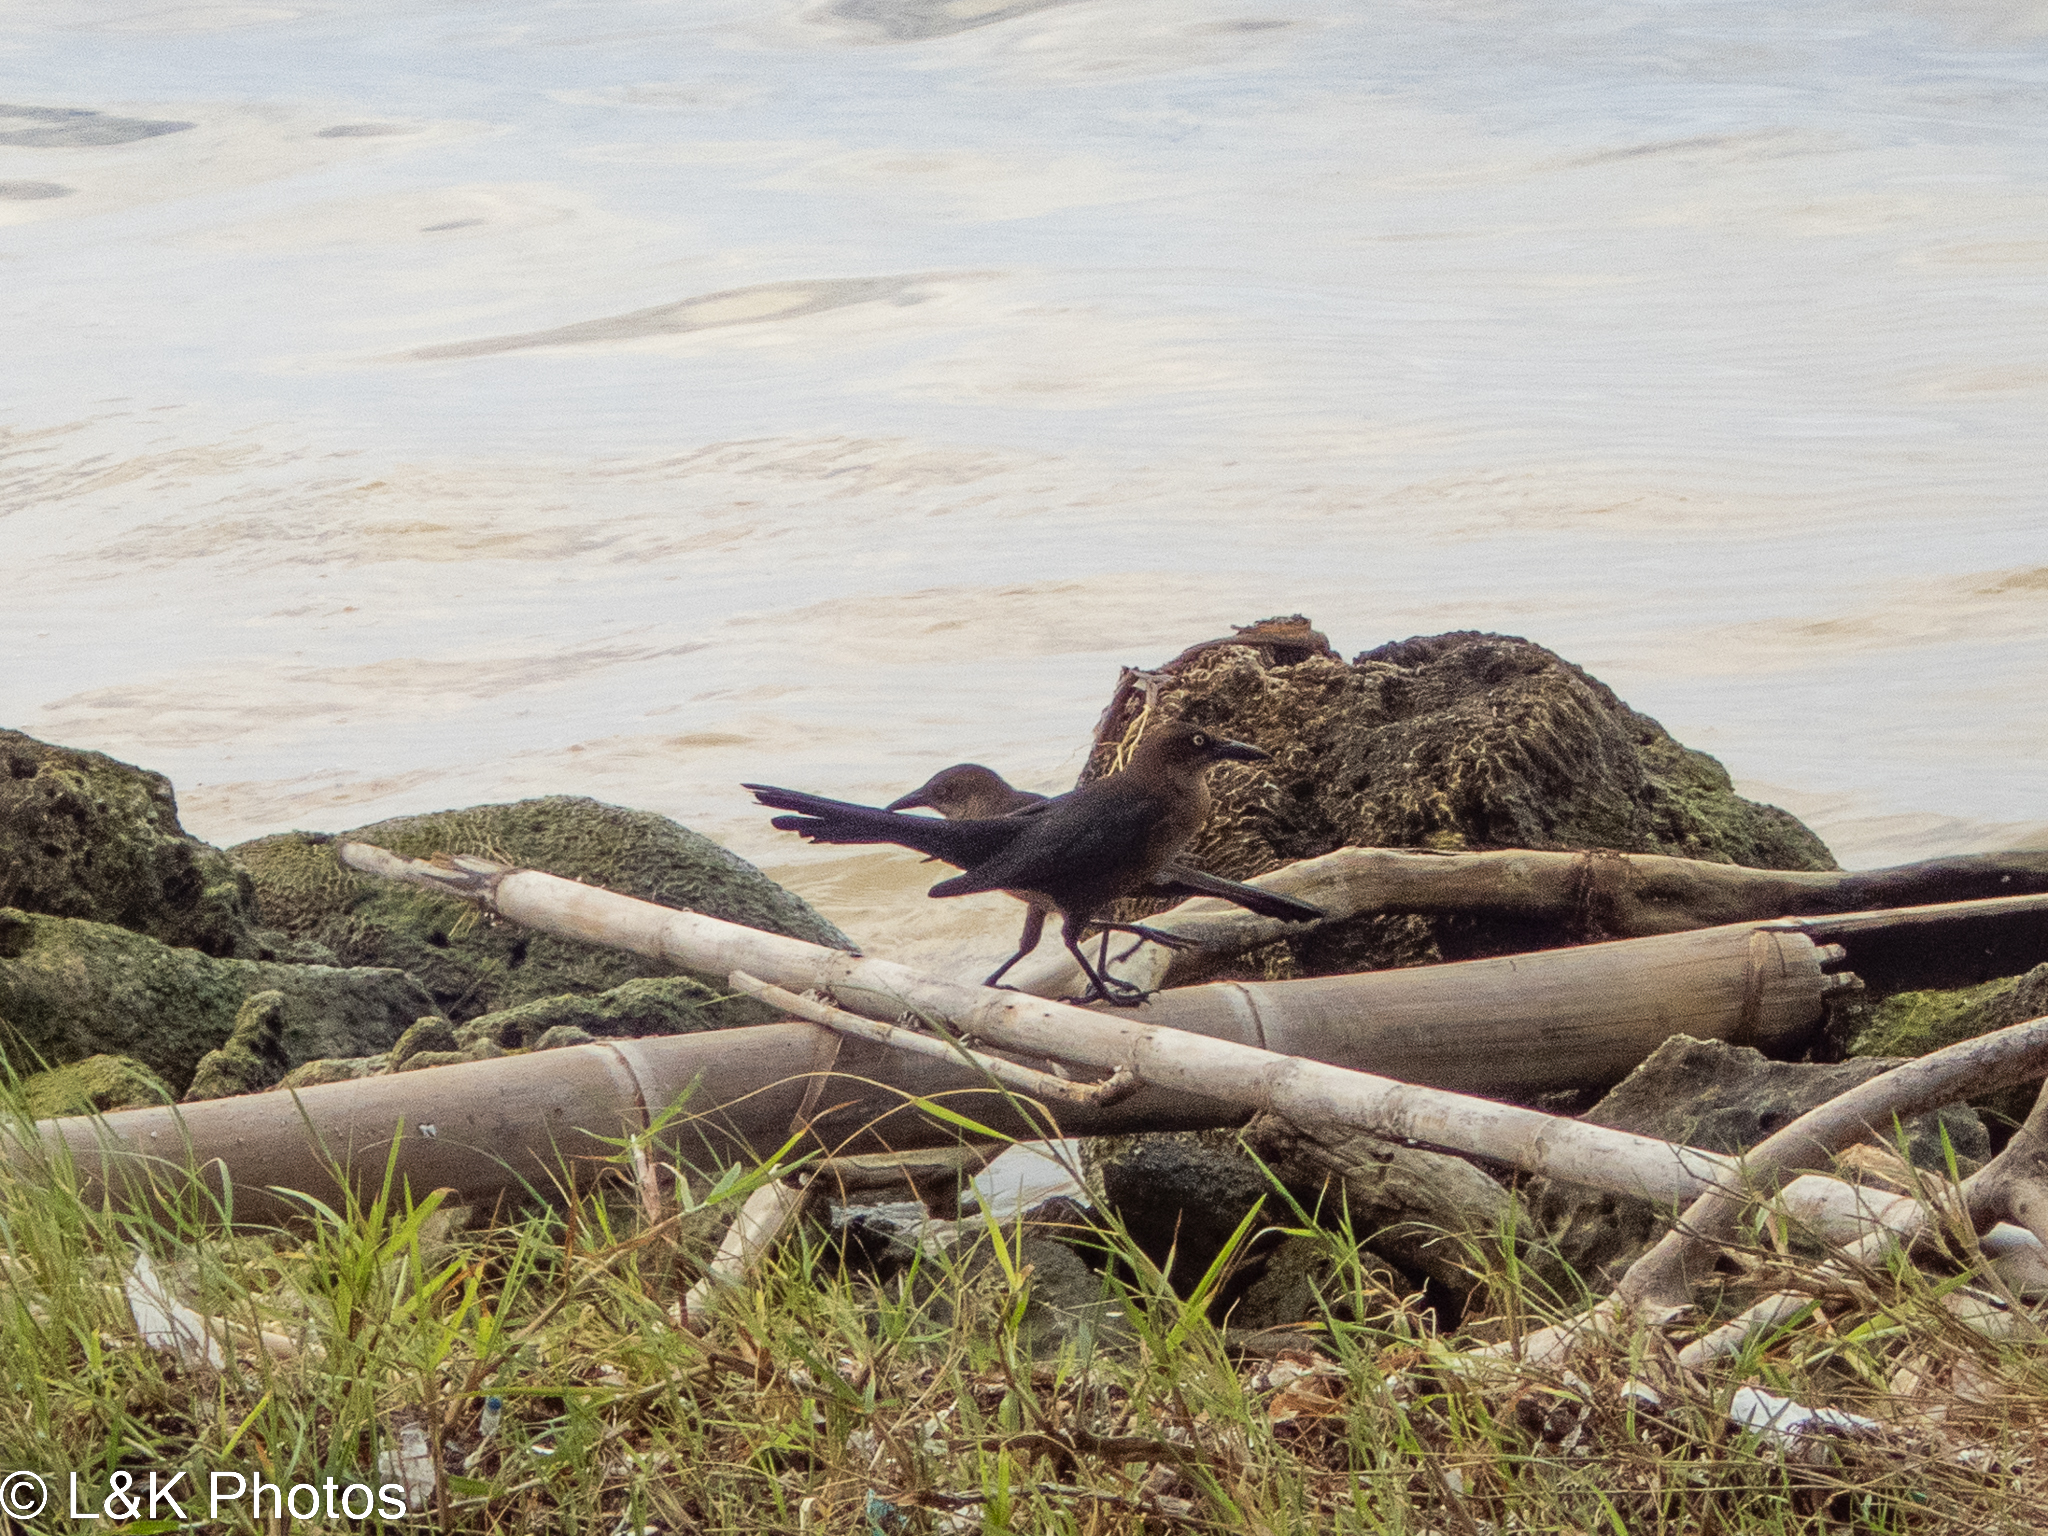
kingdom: Animalia
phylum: Chordata
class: Aves
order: Passeriformes
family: Icteridae
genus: Quiscalus
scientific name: Quiscalus mexicanus
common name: Great-tailed grackle
